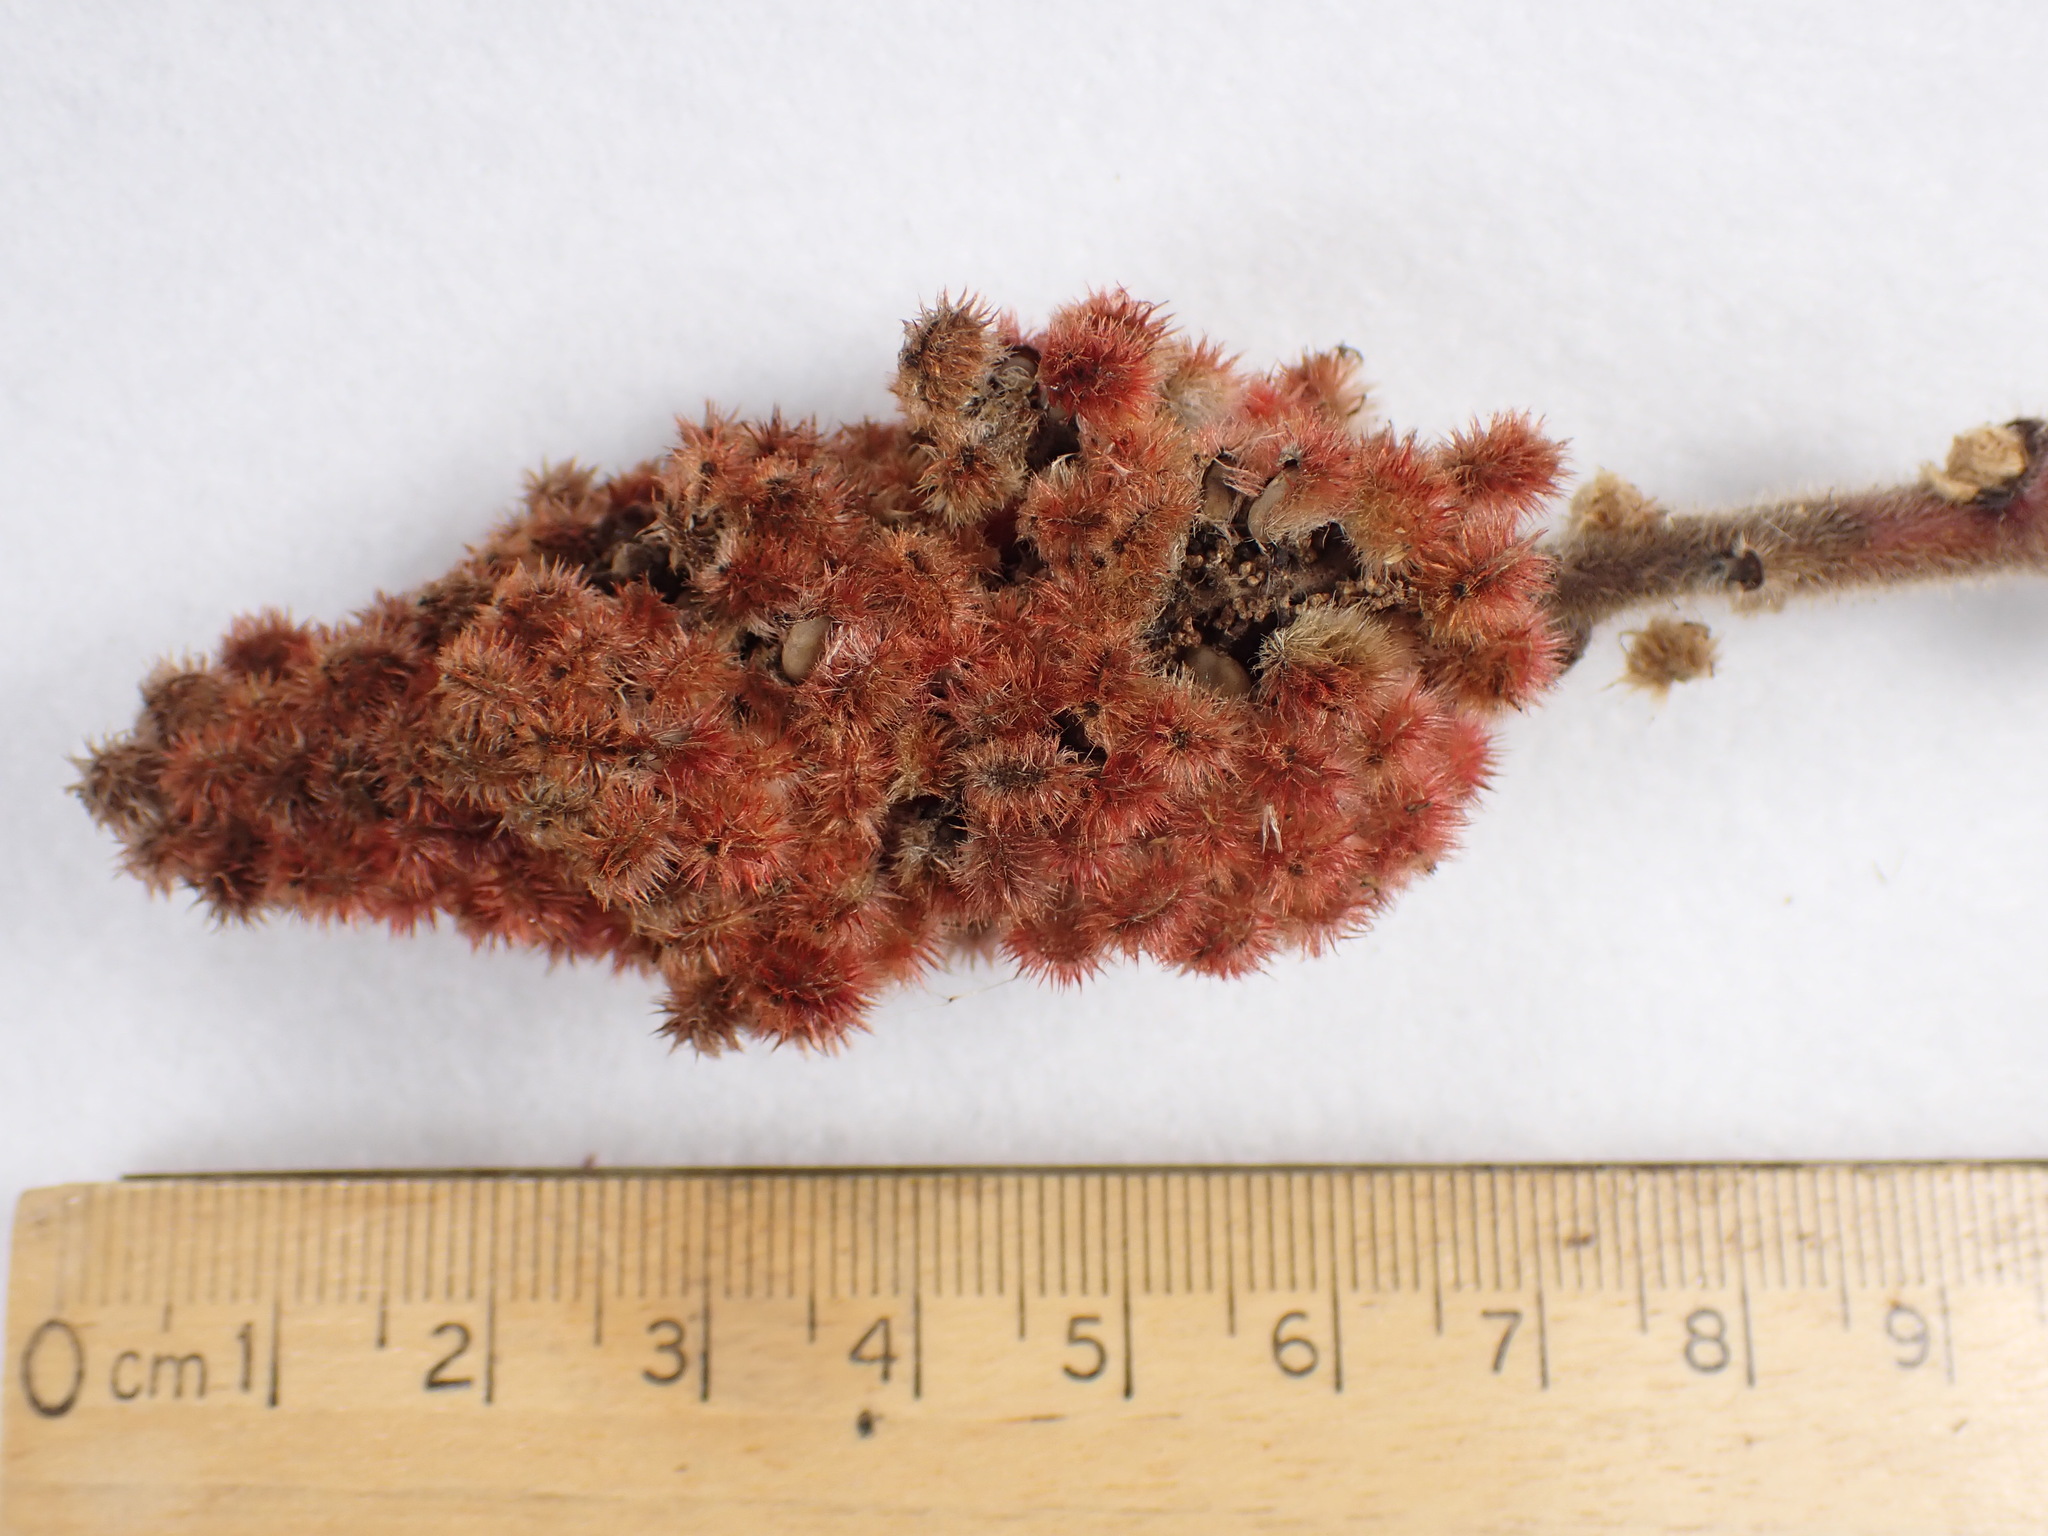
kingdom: Plantae
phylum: Tracheophyta
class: Magnoliopsida
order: Sapindales
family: Anacardiaceae
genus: Rhus
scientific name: Rhus typhina
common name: Staghorn sumac
